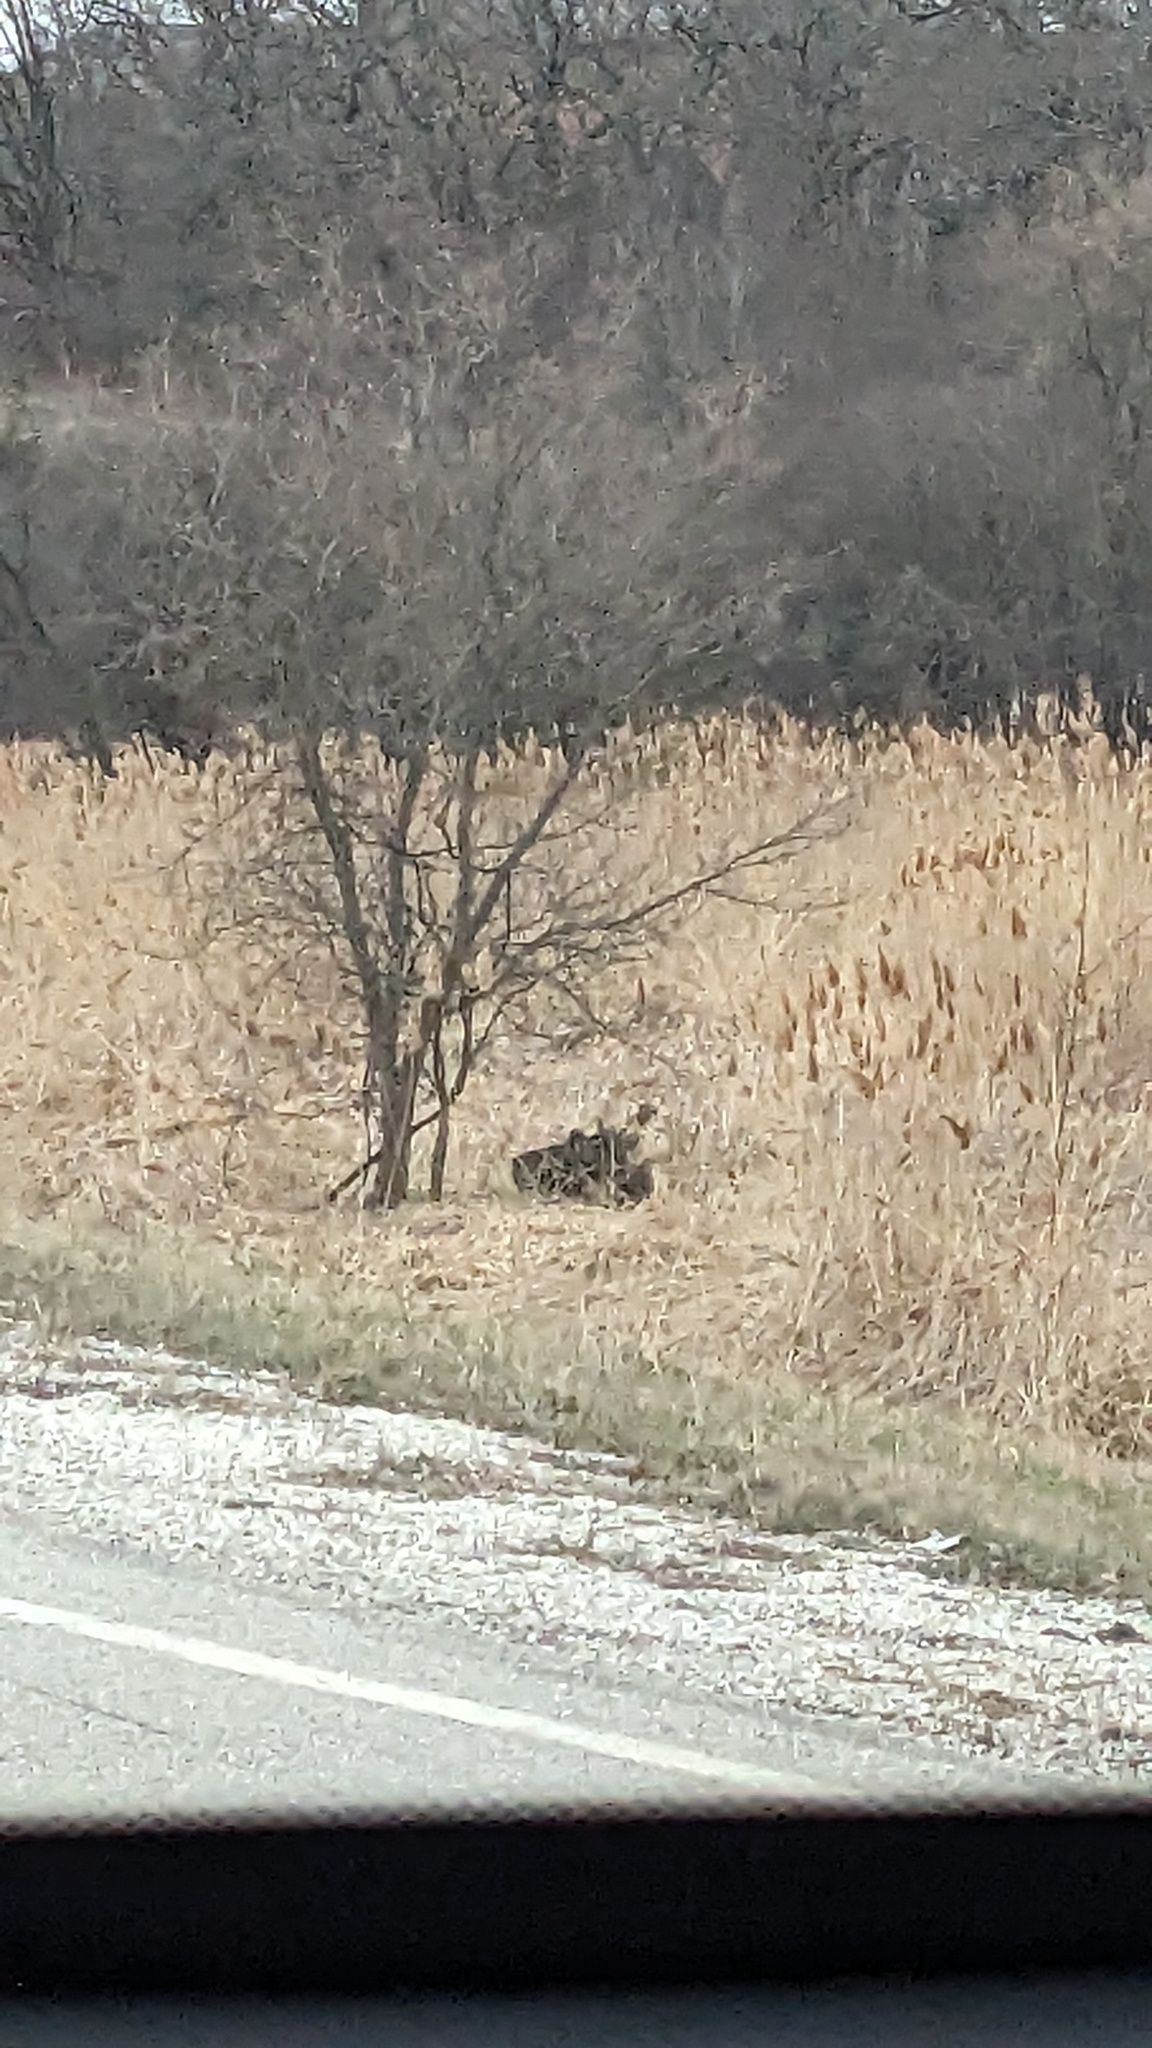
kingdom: Plantae
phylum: Tracheophyta
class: Liliopsida
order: Poales
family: Poaceae
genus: Phragmites
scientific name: Phragmites australis
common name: Common reed
